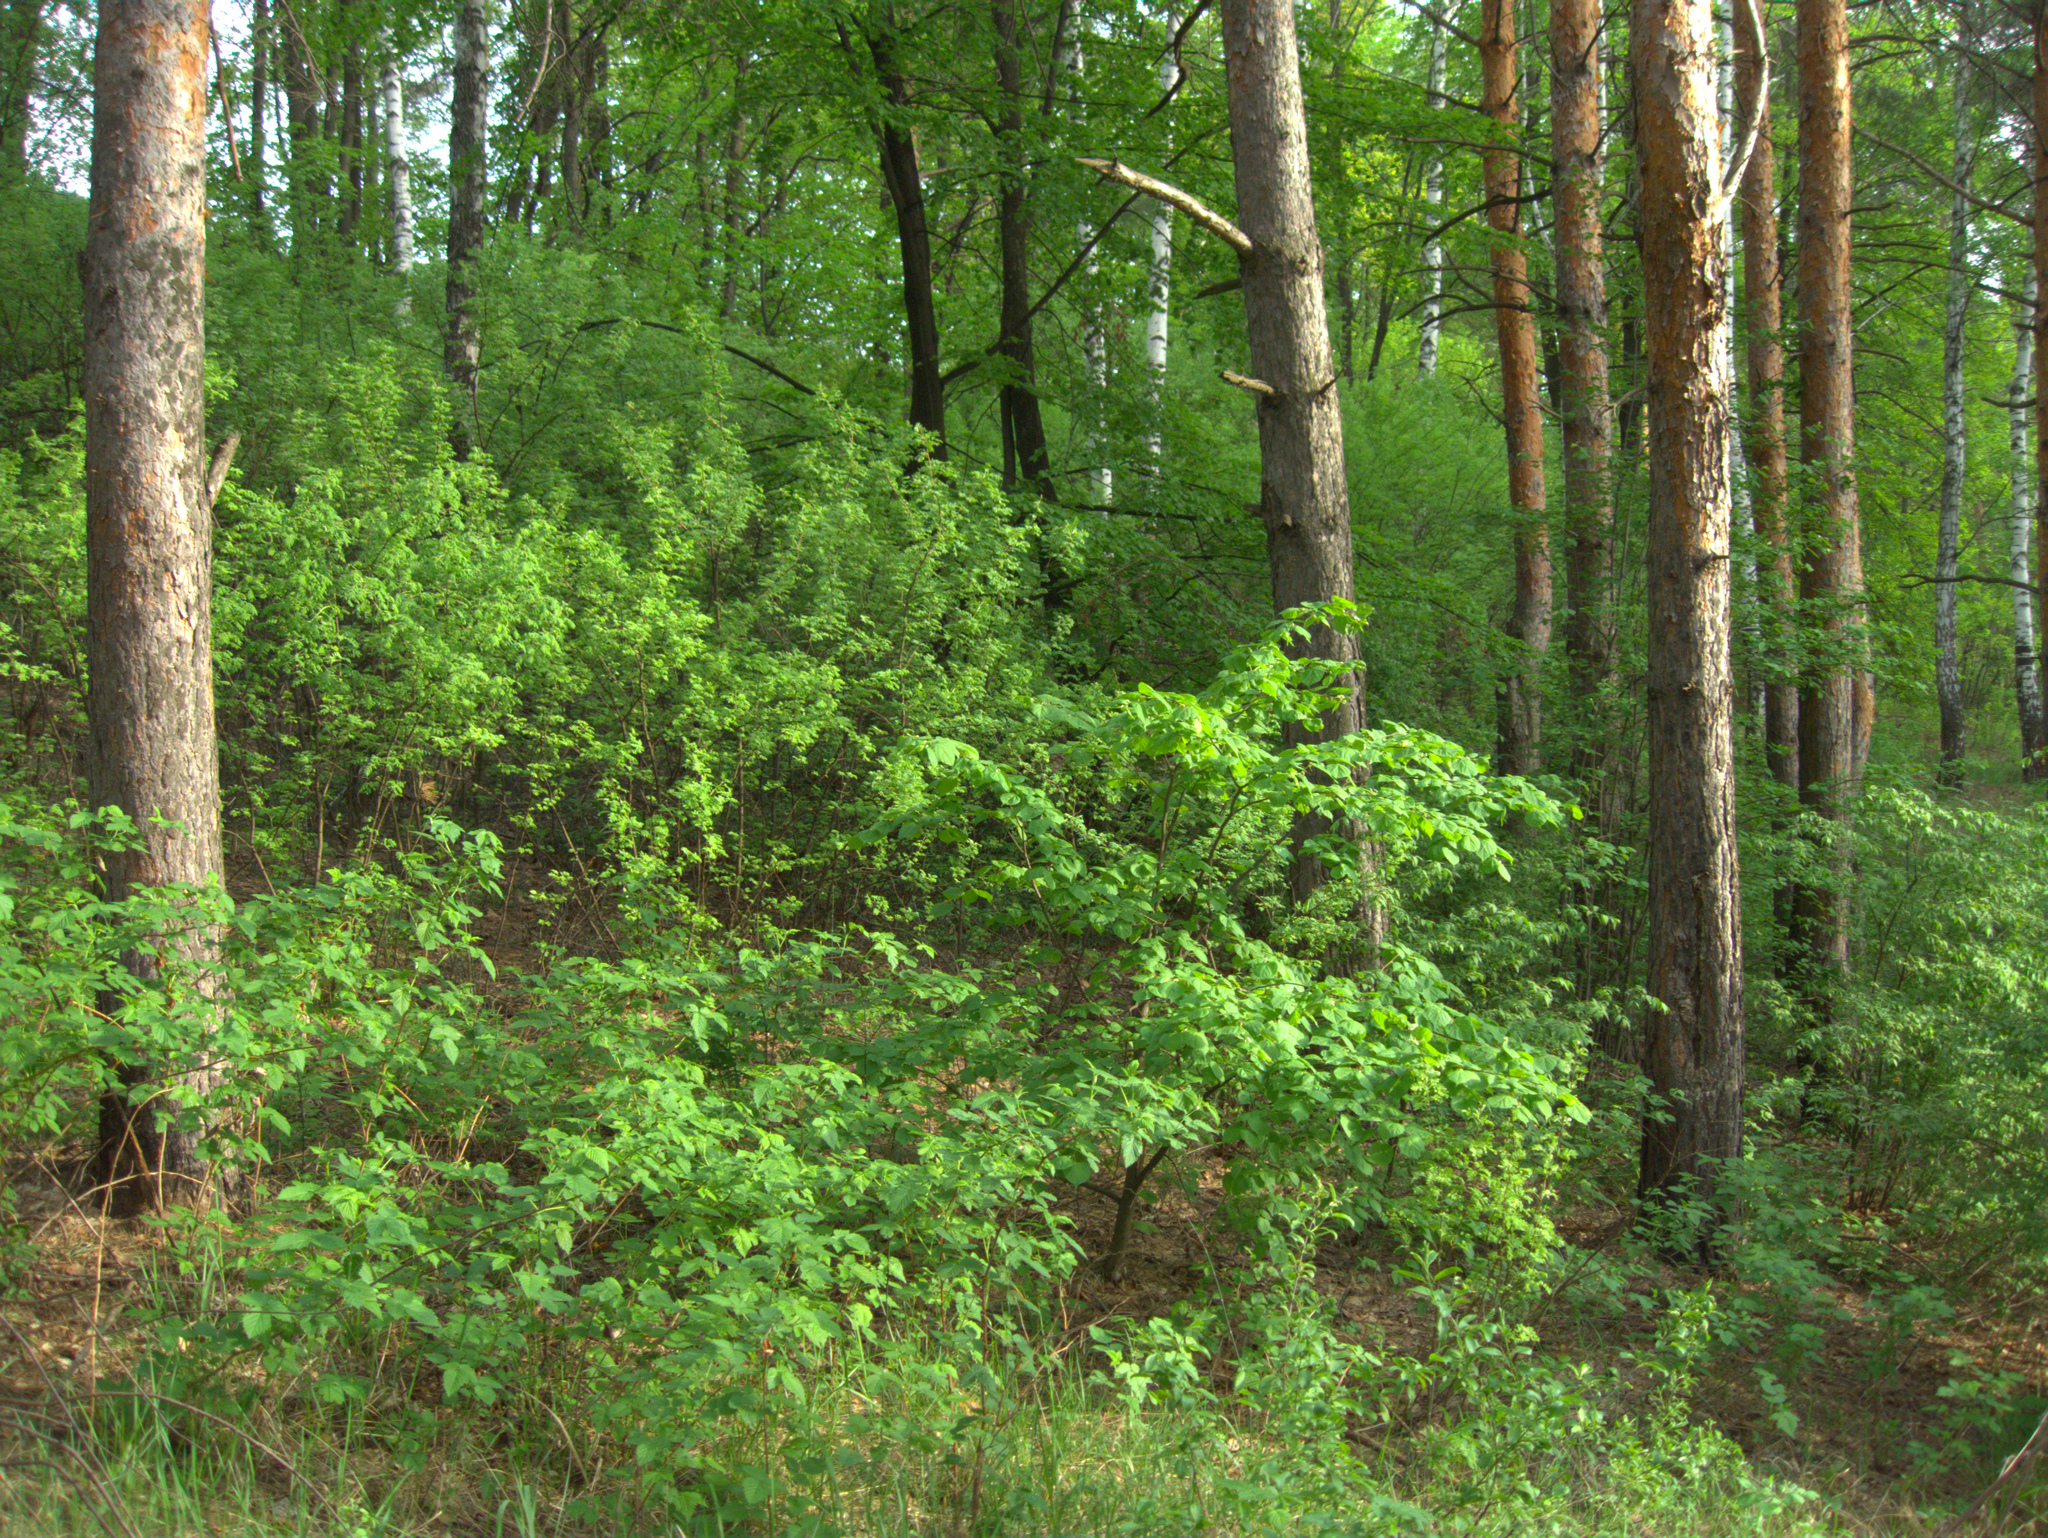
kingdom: Plantae
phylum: Tracheophyta
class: Magnoliopsida
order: Malvales
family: Malvaceae
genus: Tilia
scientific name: Tilia cordata
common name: Small-leaved lime
